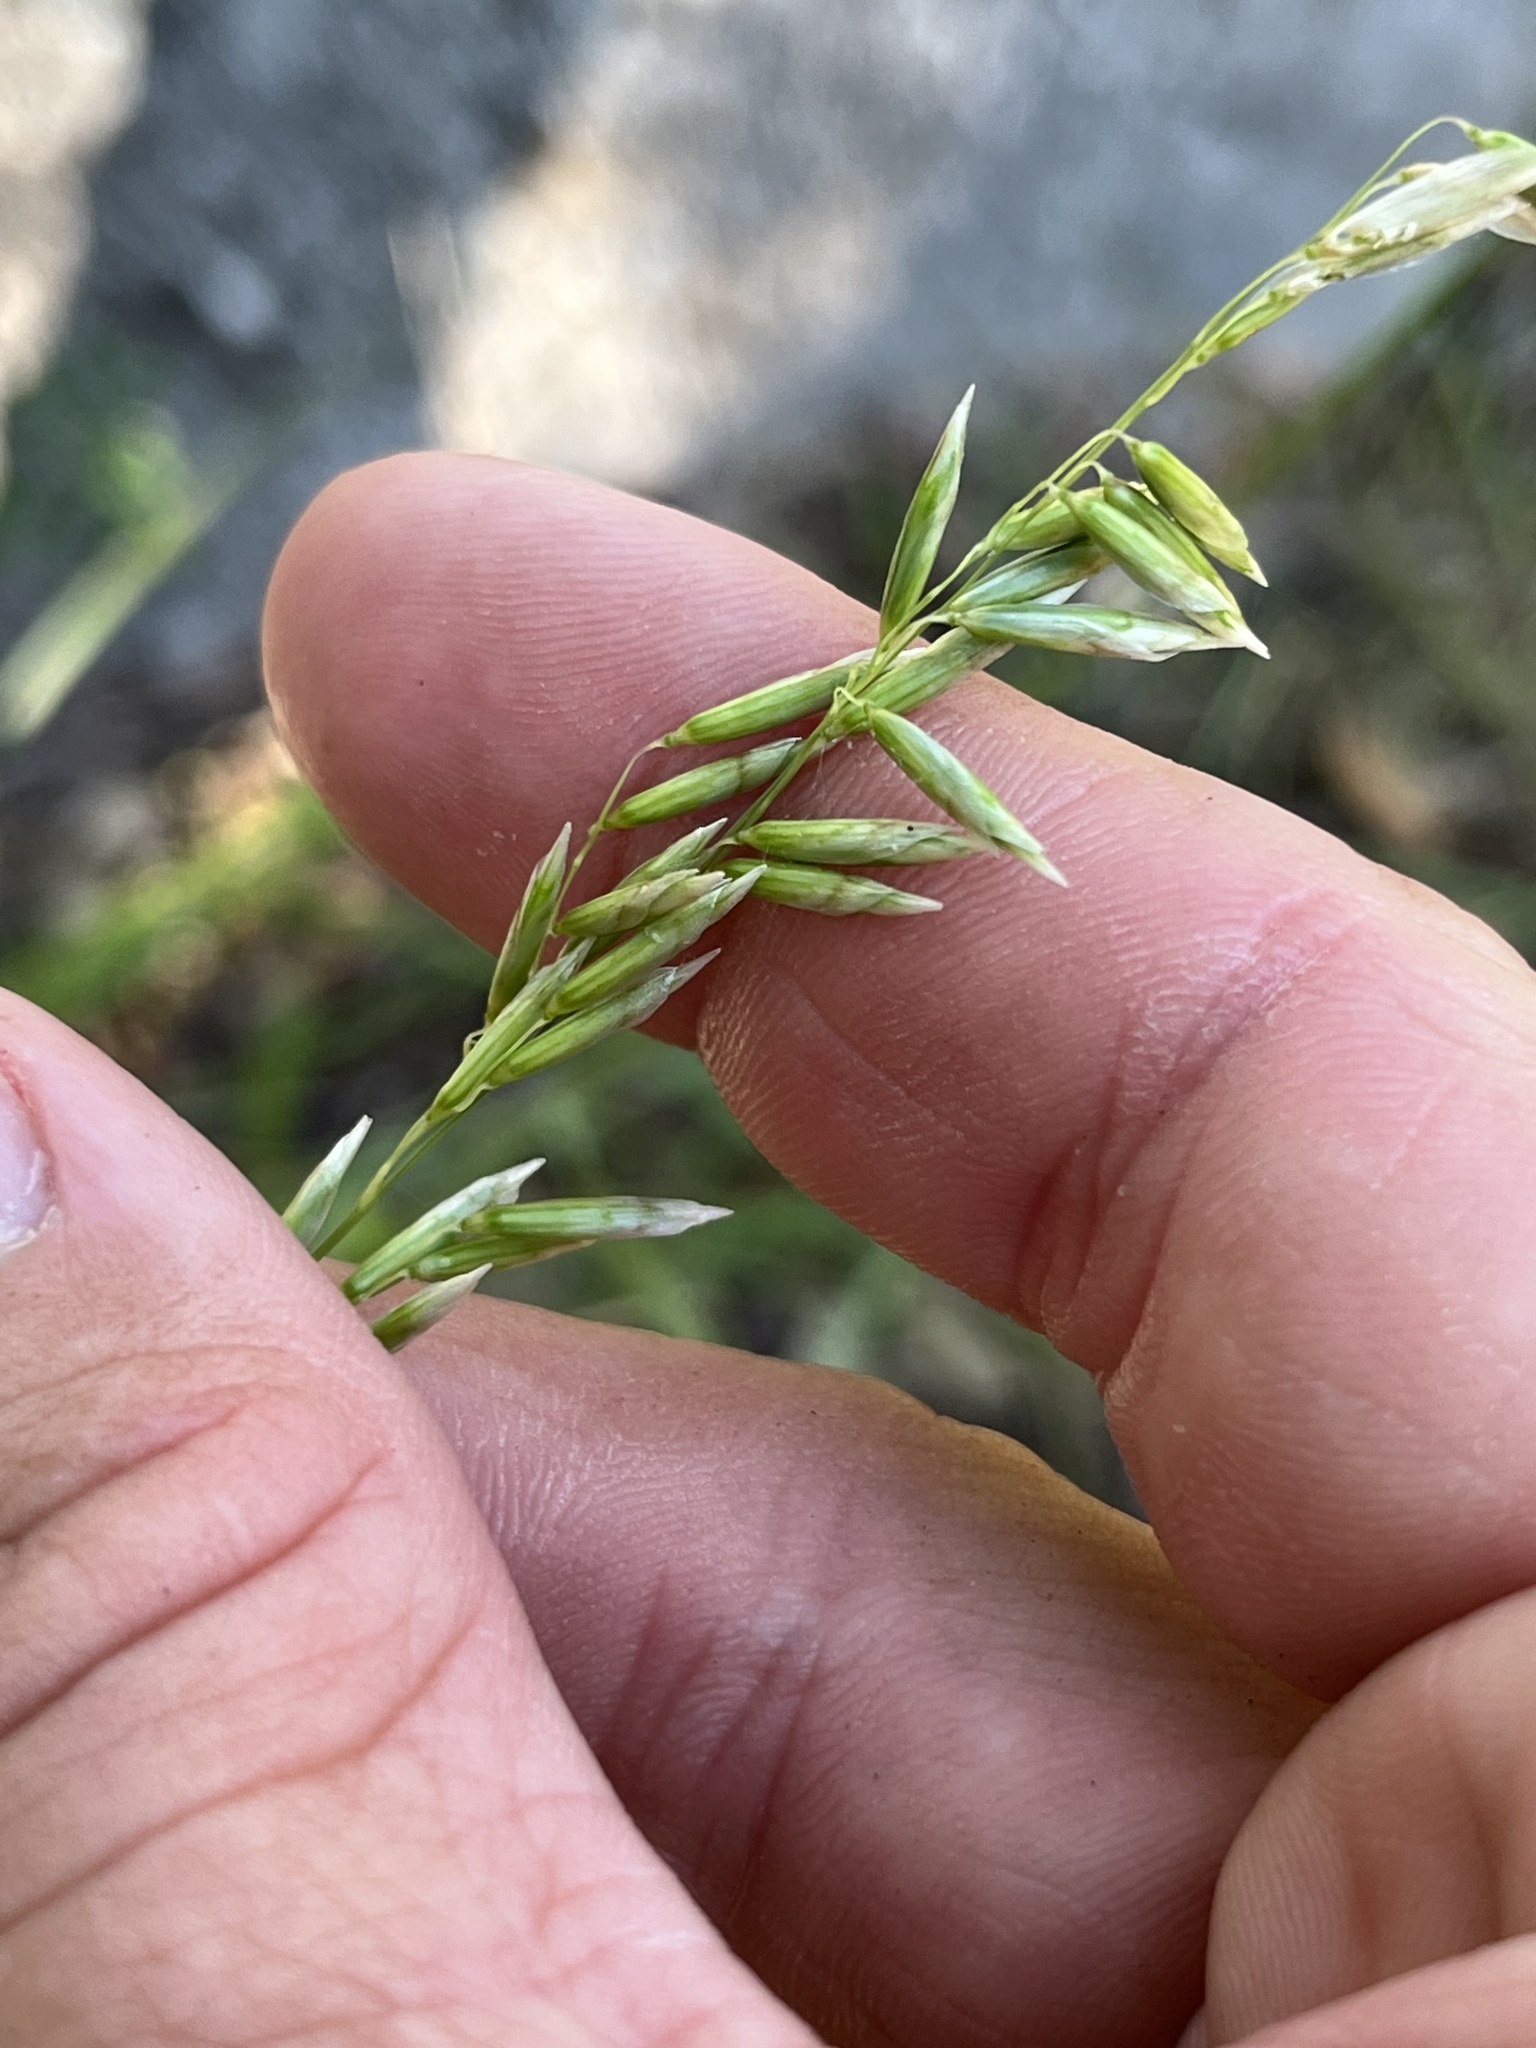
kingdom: Plantae
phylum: Tracheophyta
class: Liliopsida
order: Poales
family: Poaceae
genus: Melica
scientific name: Melica nitens
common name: Three-flower melic
